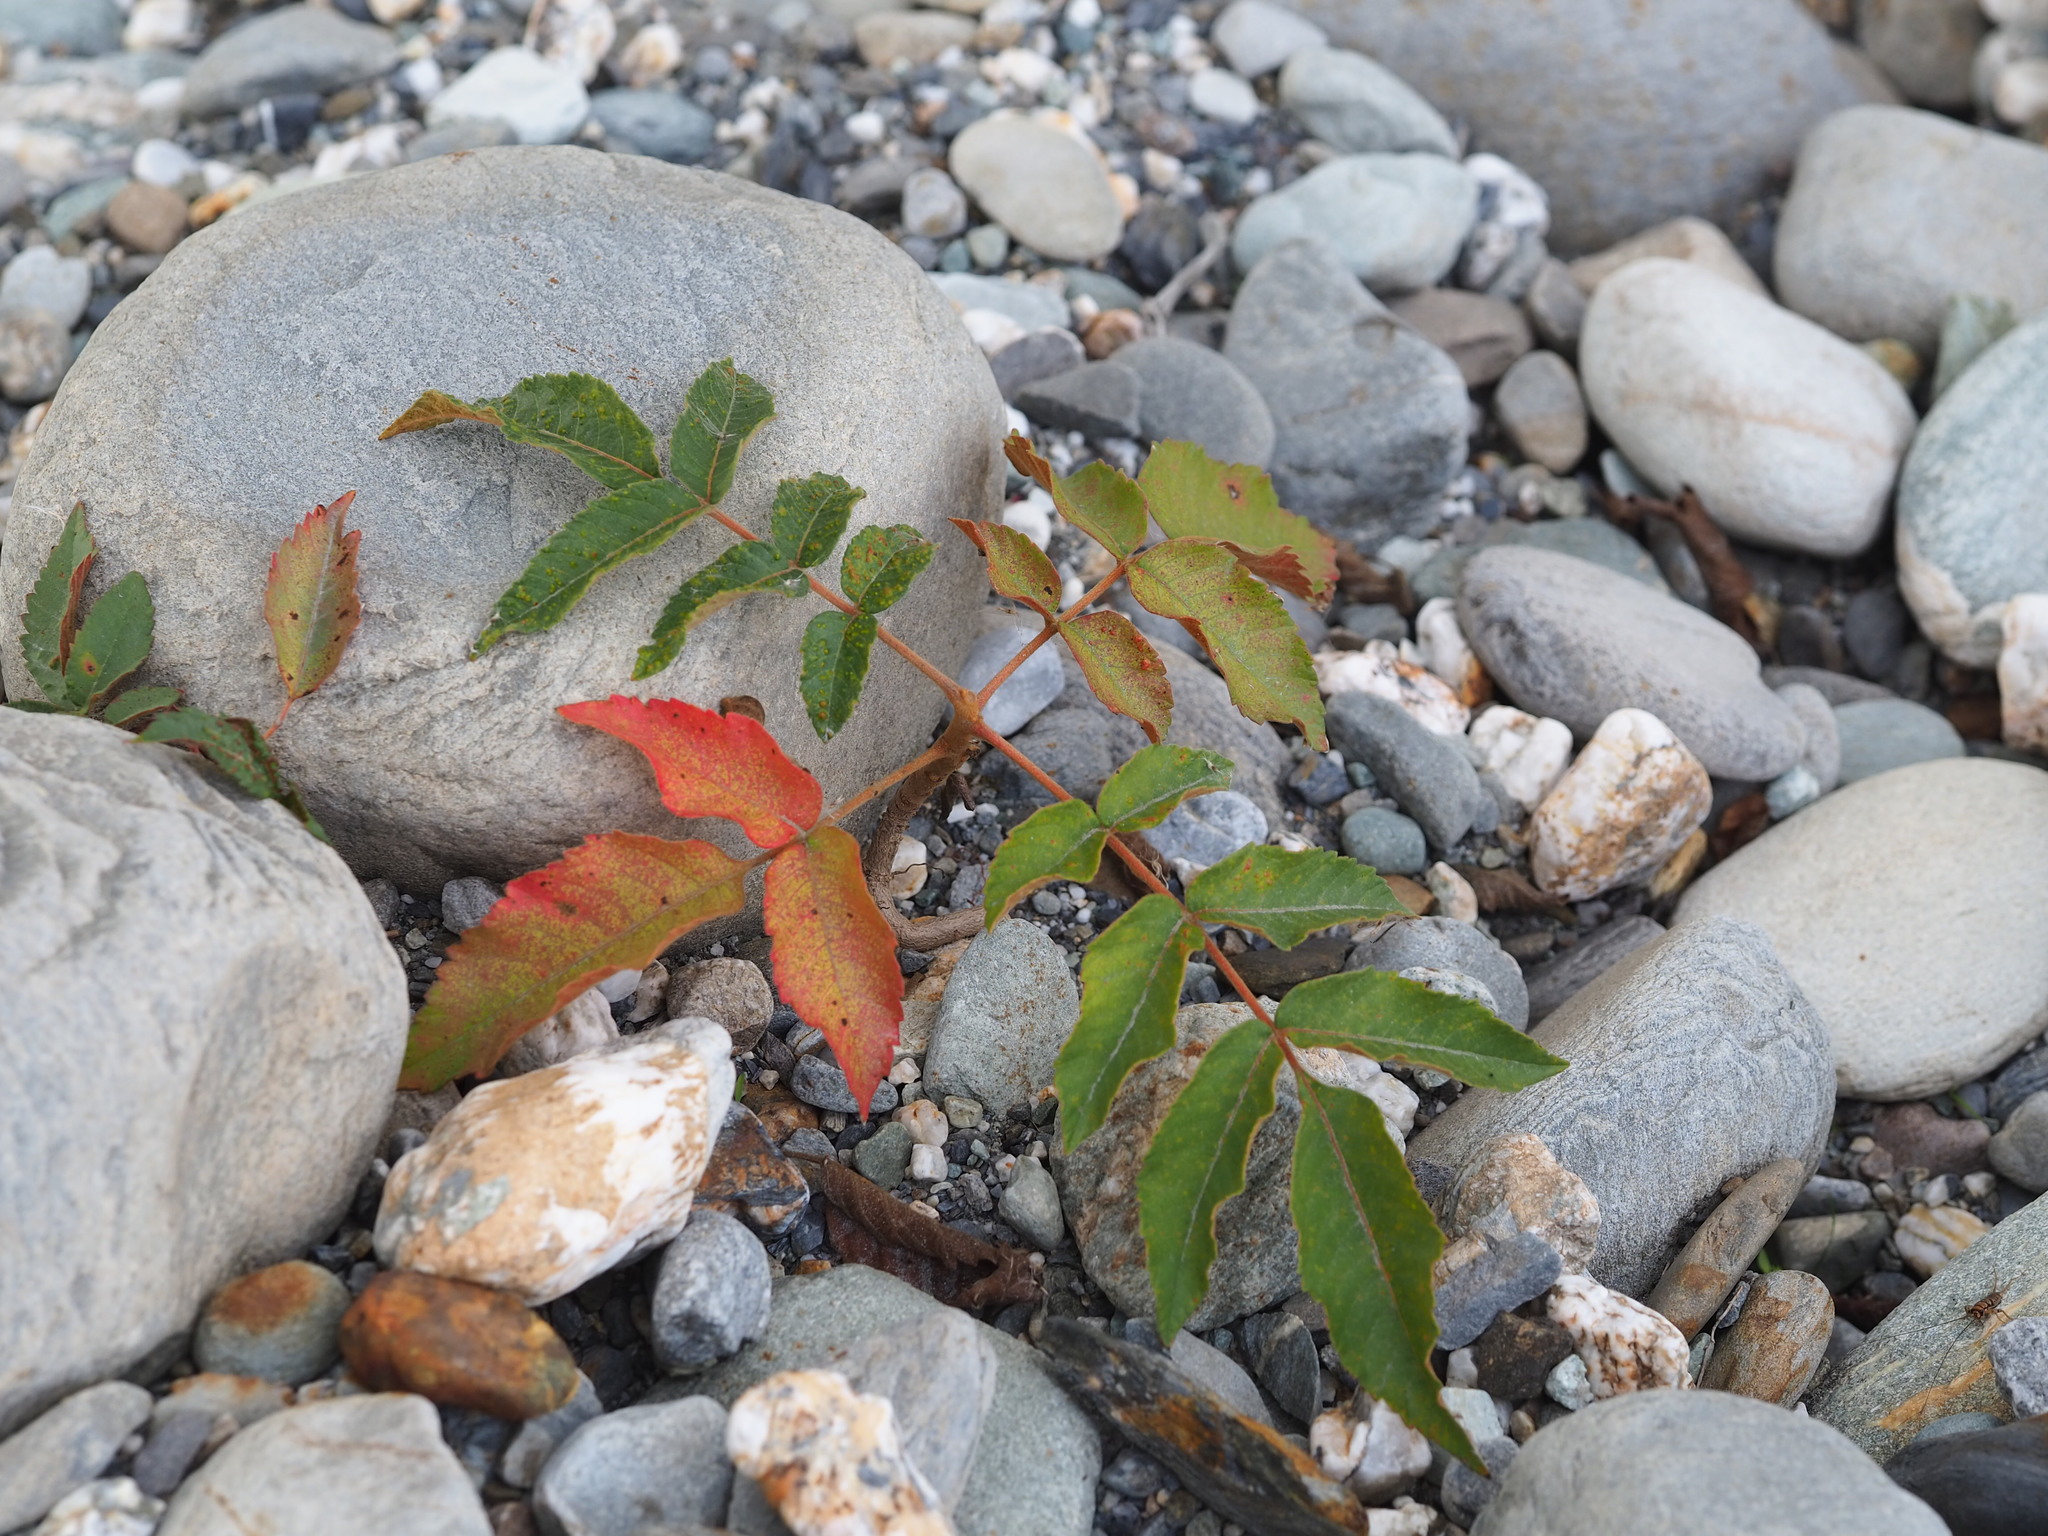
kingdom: Plantae
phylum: Tracheophyta
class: Magnoliopsida
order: Sapindales
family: Anacardiaceae
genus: Rhus
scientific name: Rhus chinensis
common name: Chinese gall
